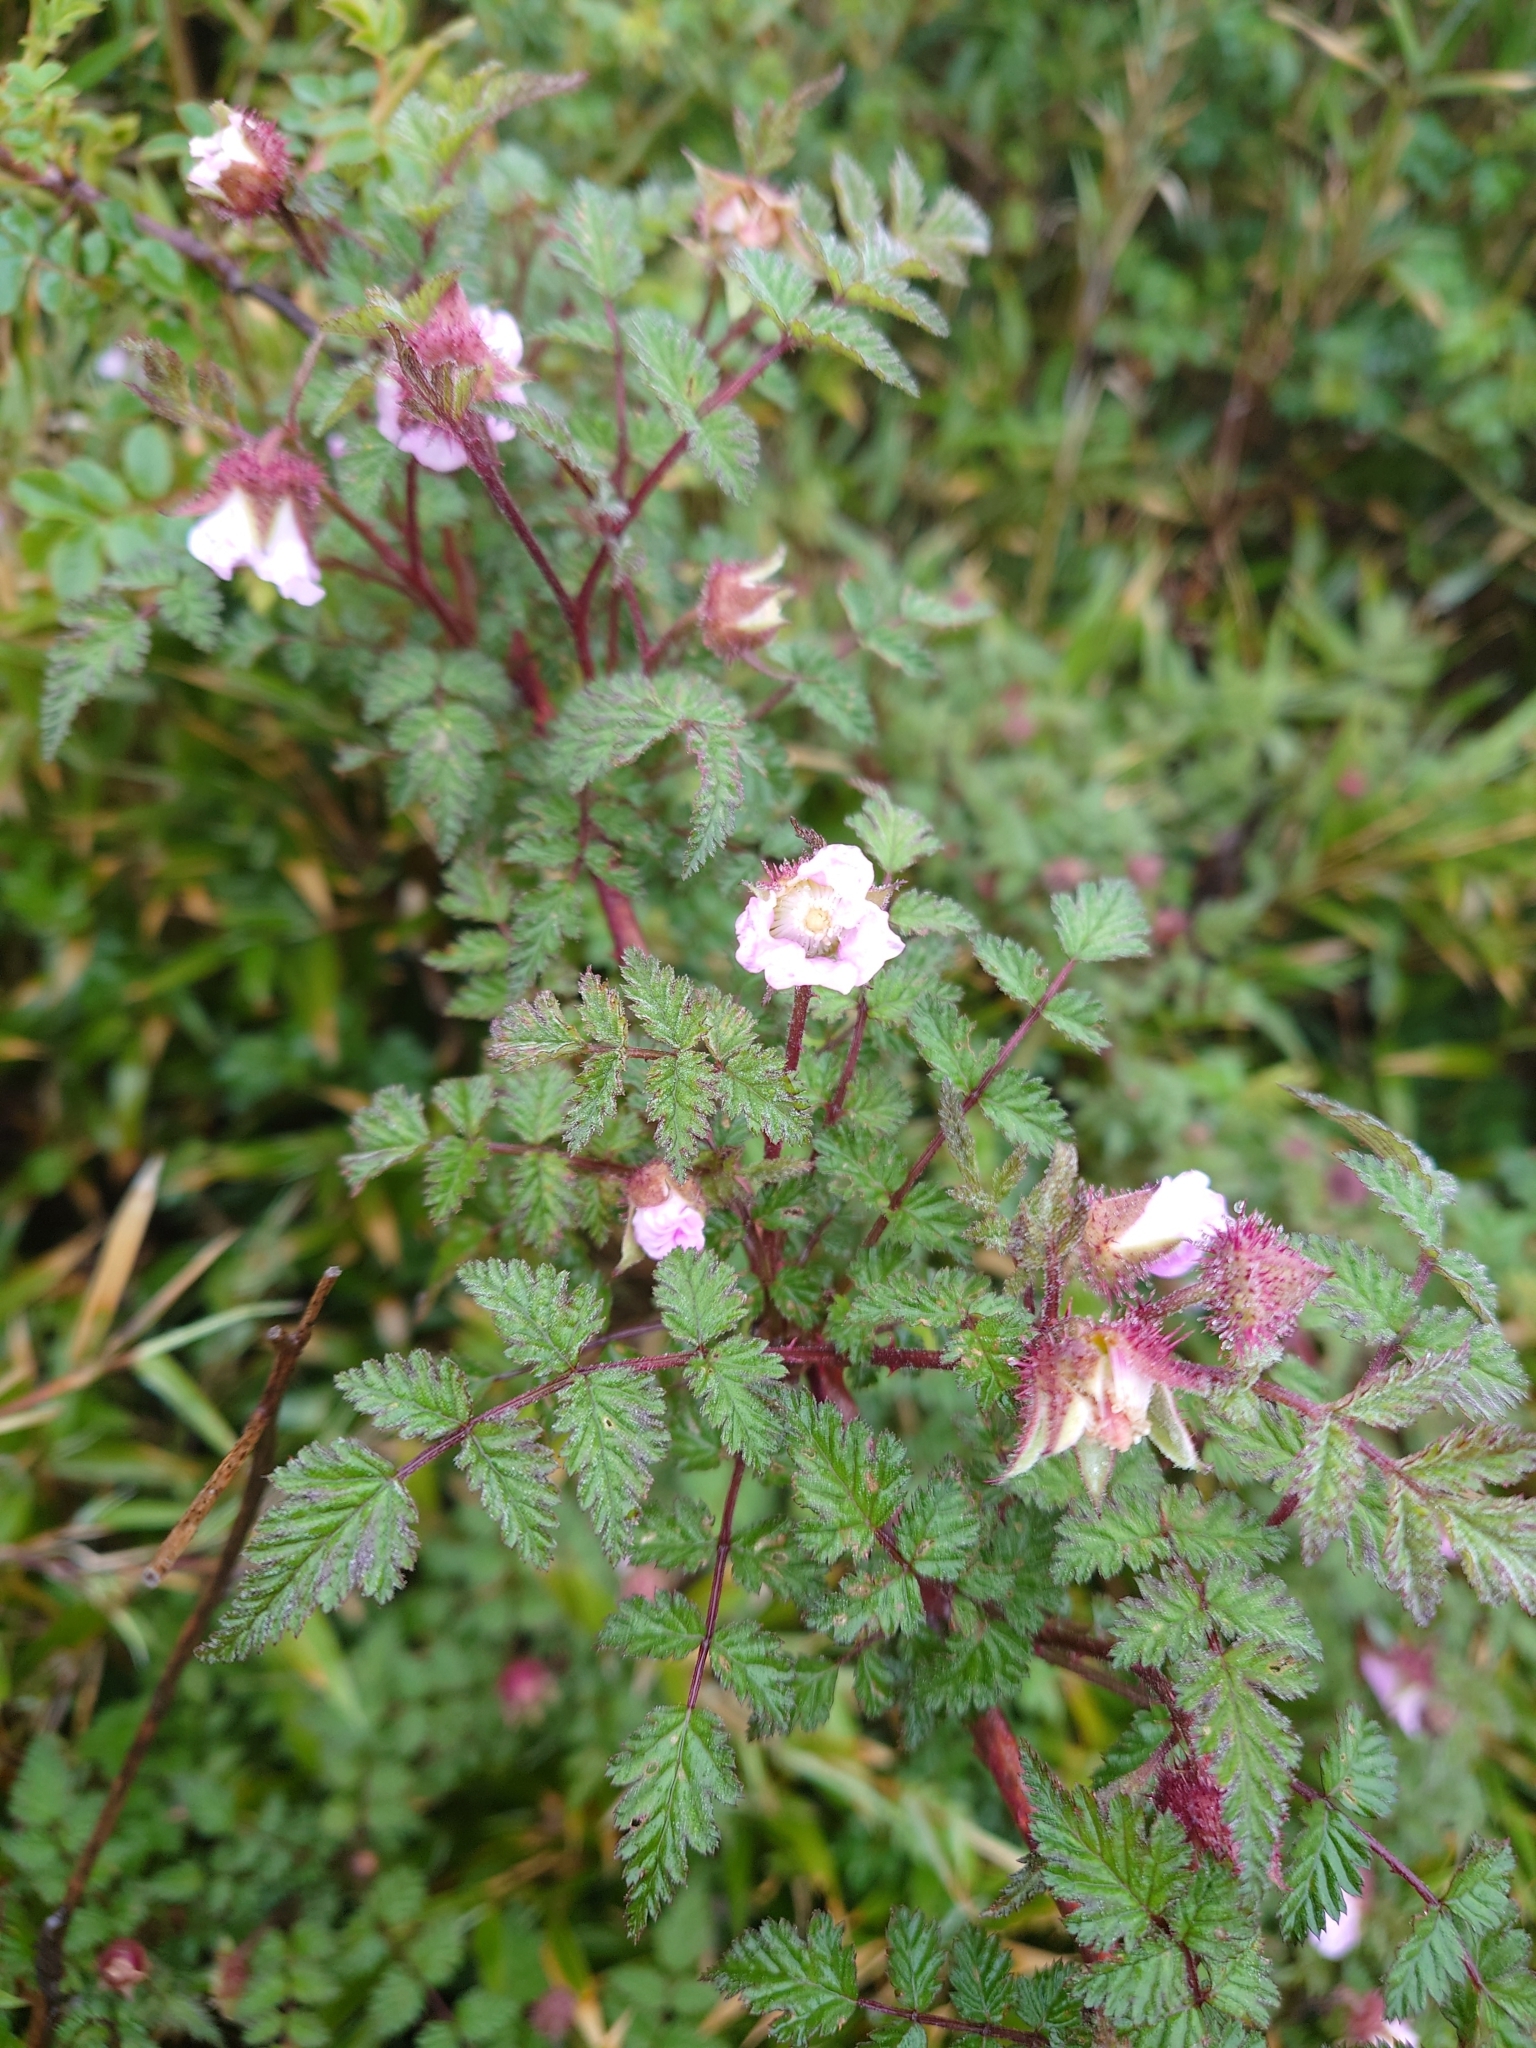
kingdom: Plantae
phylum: Tracheophyta
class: Magnoliopsida
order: Rosales
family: Rosaceae
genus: Rubus
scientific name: Rubus pungens
